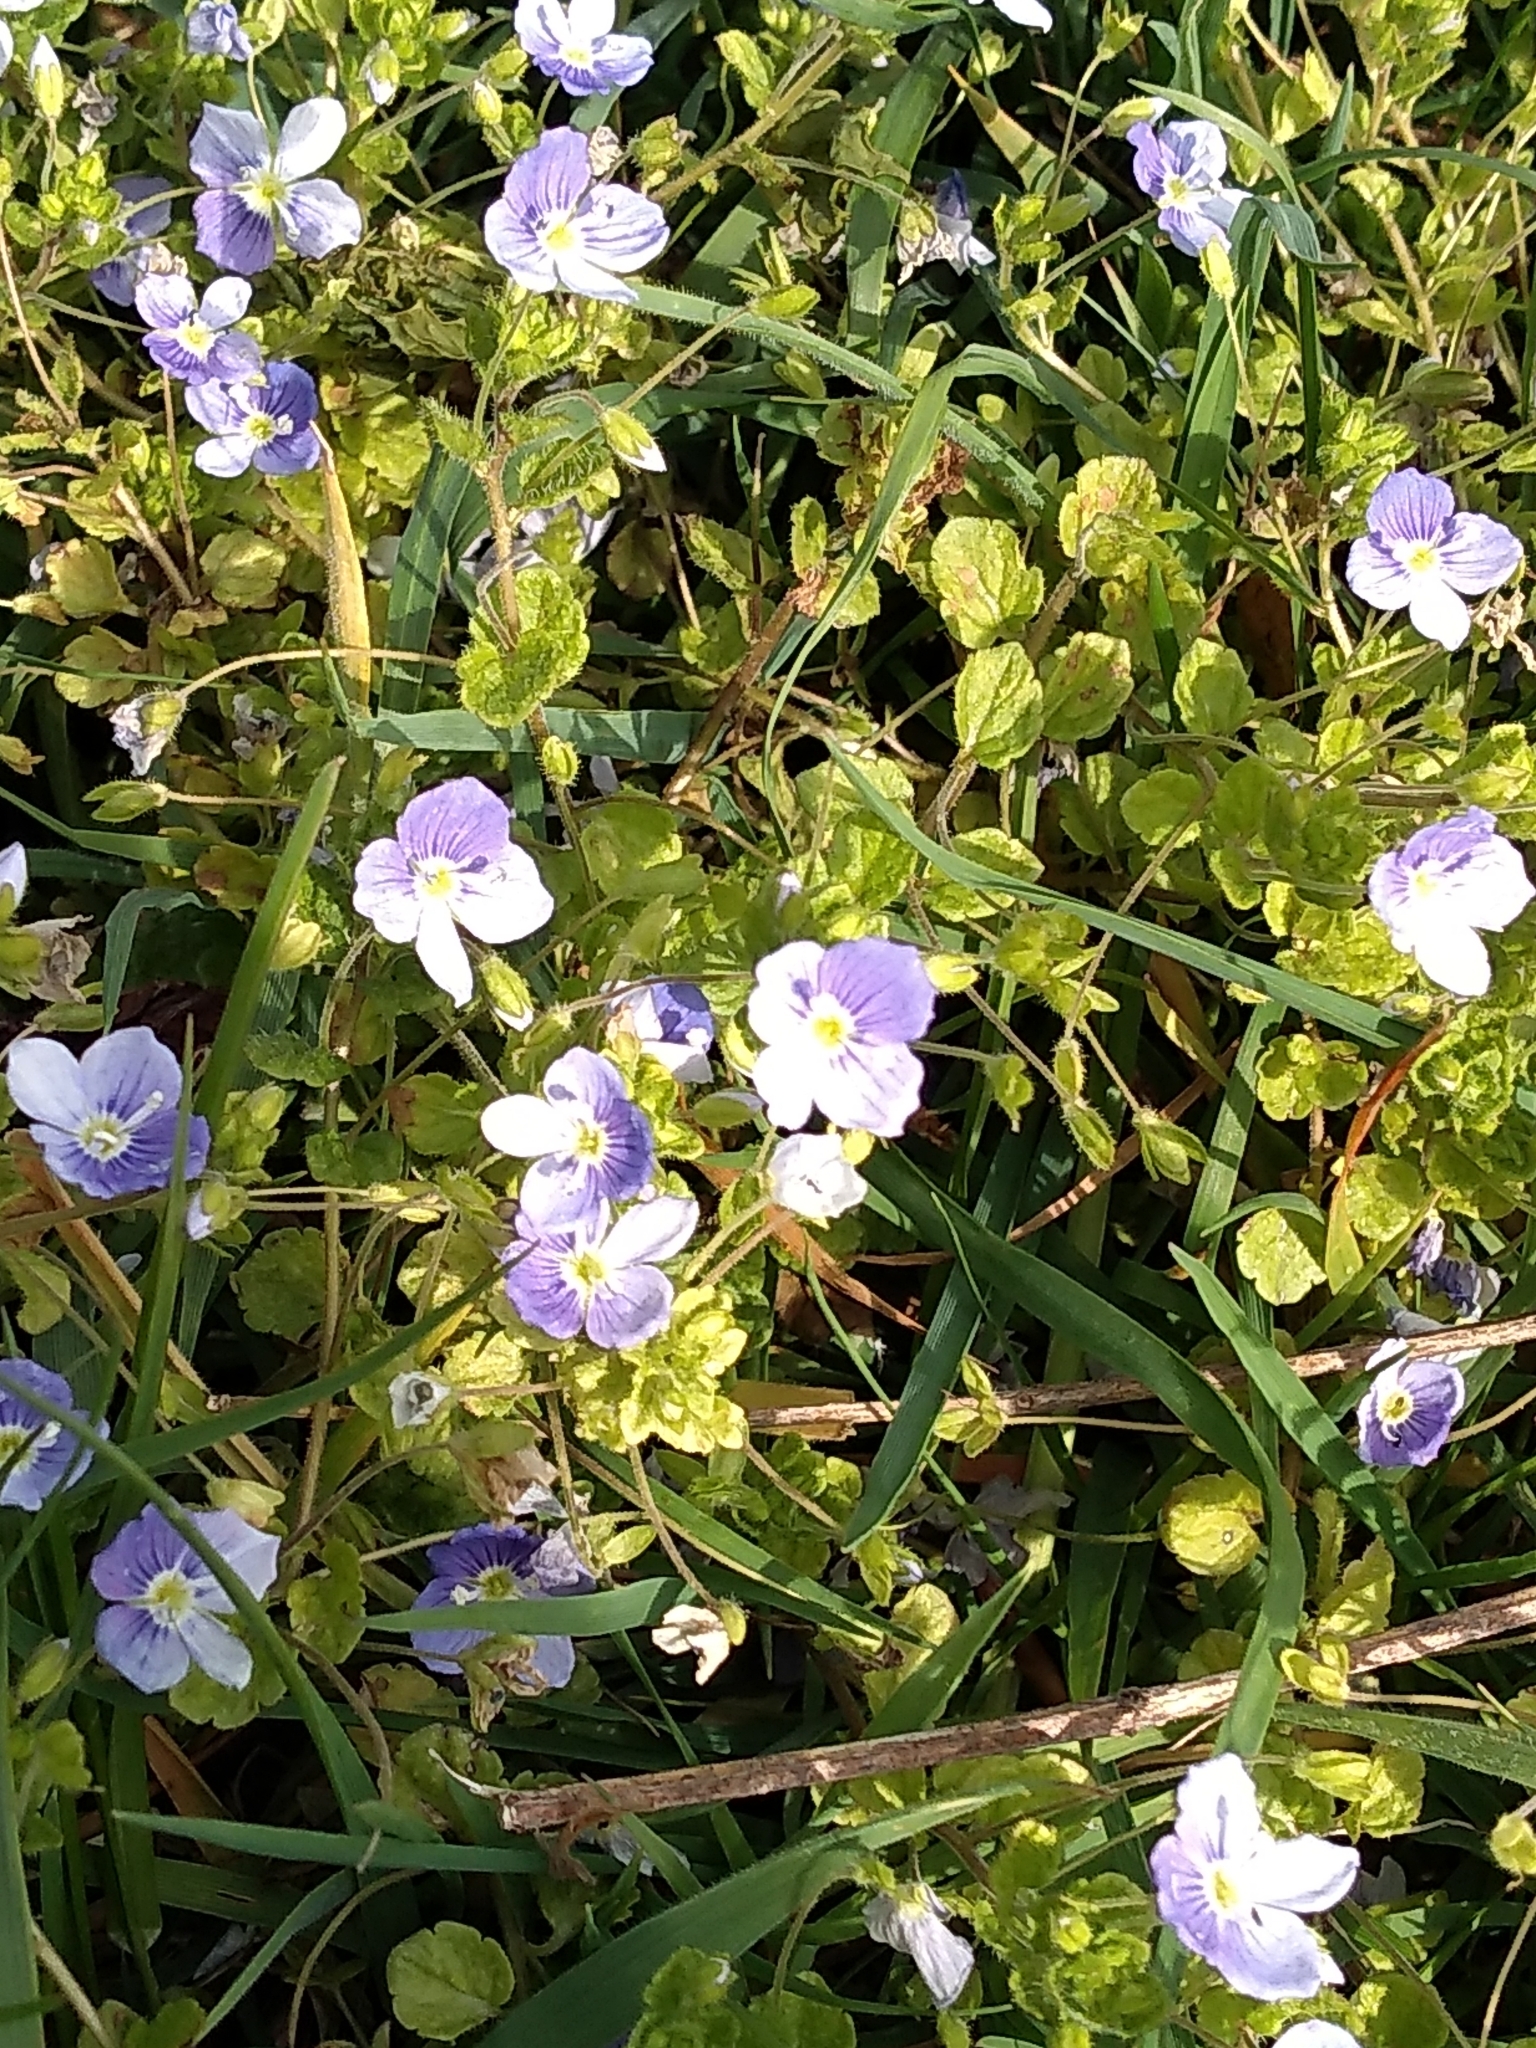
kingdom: Plantae
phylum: Tracheophyta
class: Magnoliopsida
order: Lamiales
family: Plantaginaceae
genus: Veronica
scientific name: Veronica filiformis
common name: Slender speedwell
